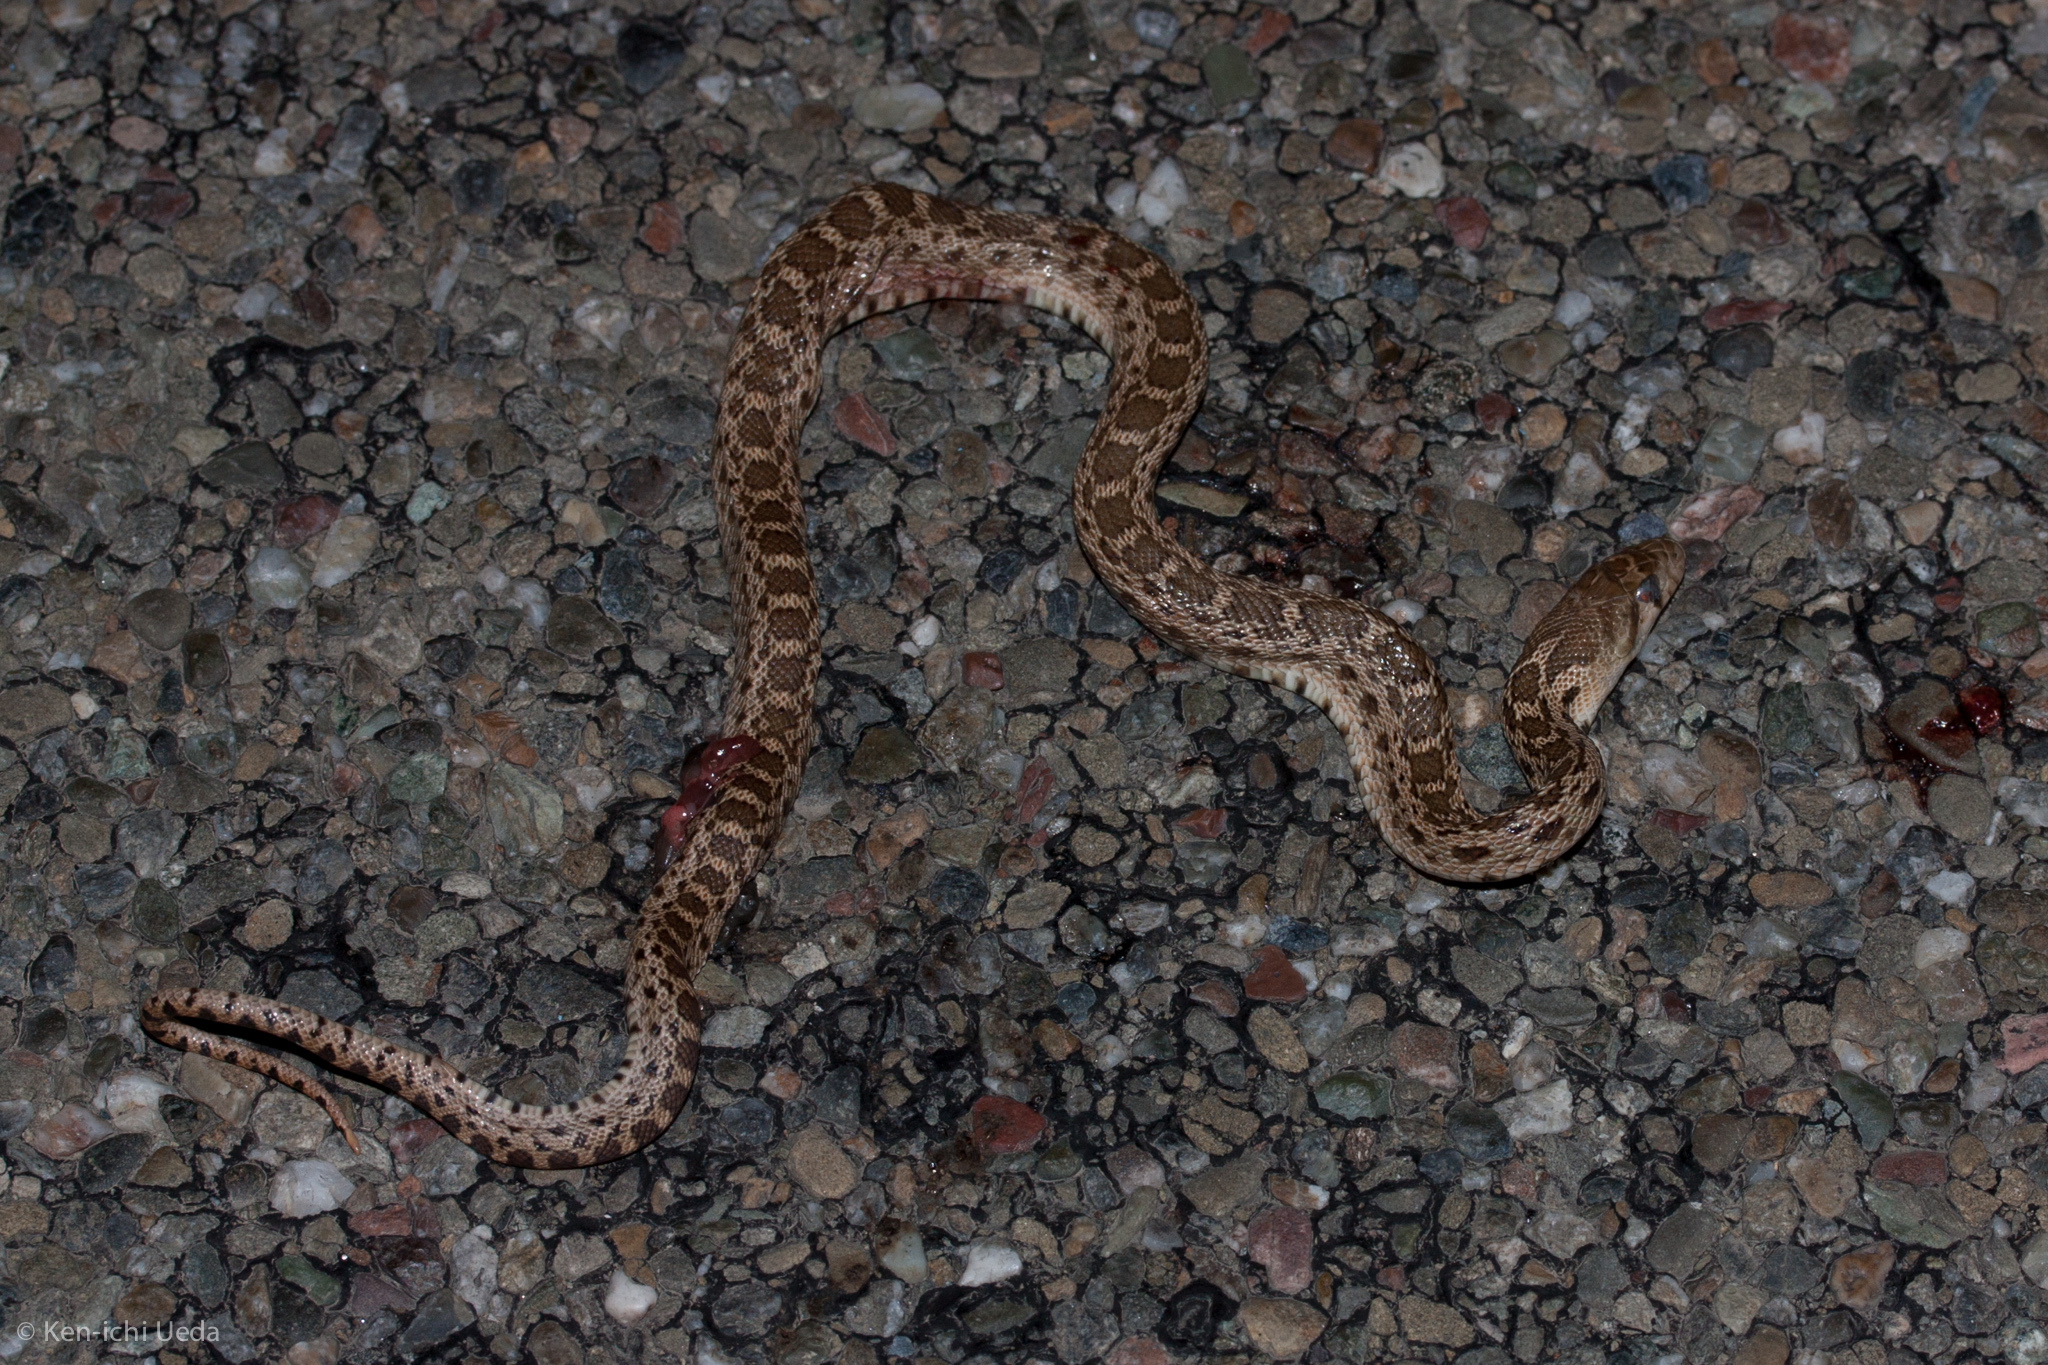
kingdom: Animalia
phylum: Chordata
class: Squamata
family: Colubridae
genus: Pituophis
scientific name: Pituophis catenifer
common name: Gopher snake
